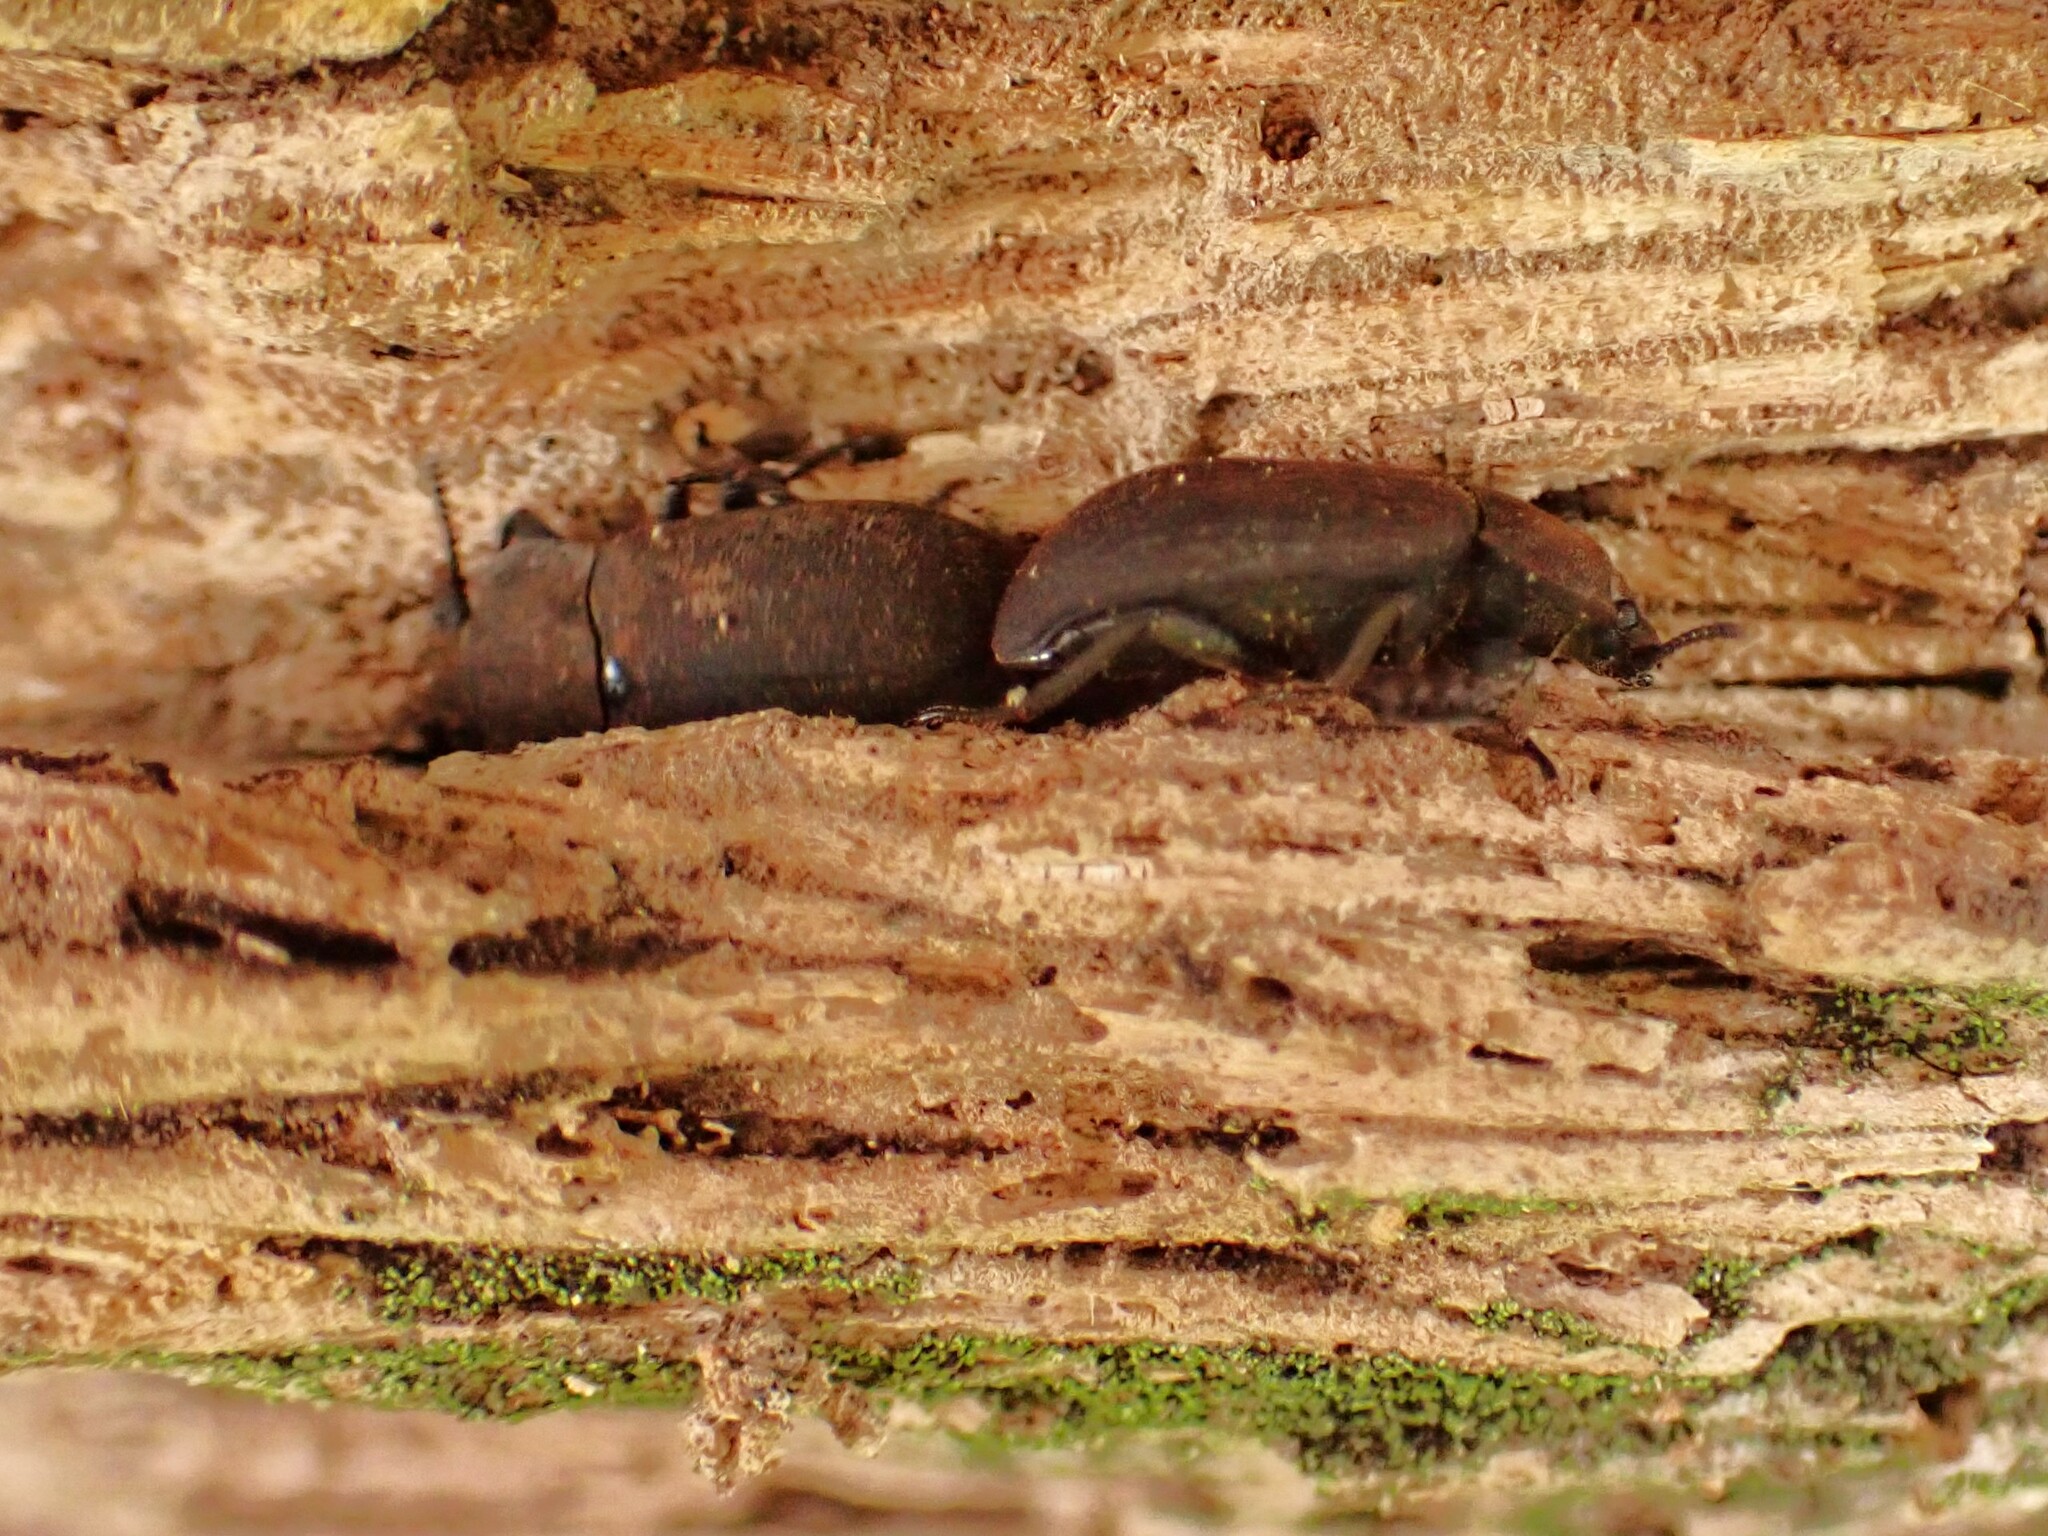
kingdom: Animalia
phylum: Arthropoda
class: Insecta
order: Coleoptera
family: Tenebrionidae
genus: Gonocephalum
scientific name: Gonocephalum adpressiforme
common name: Gonocephalum darkling beetle
